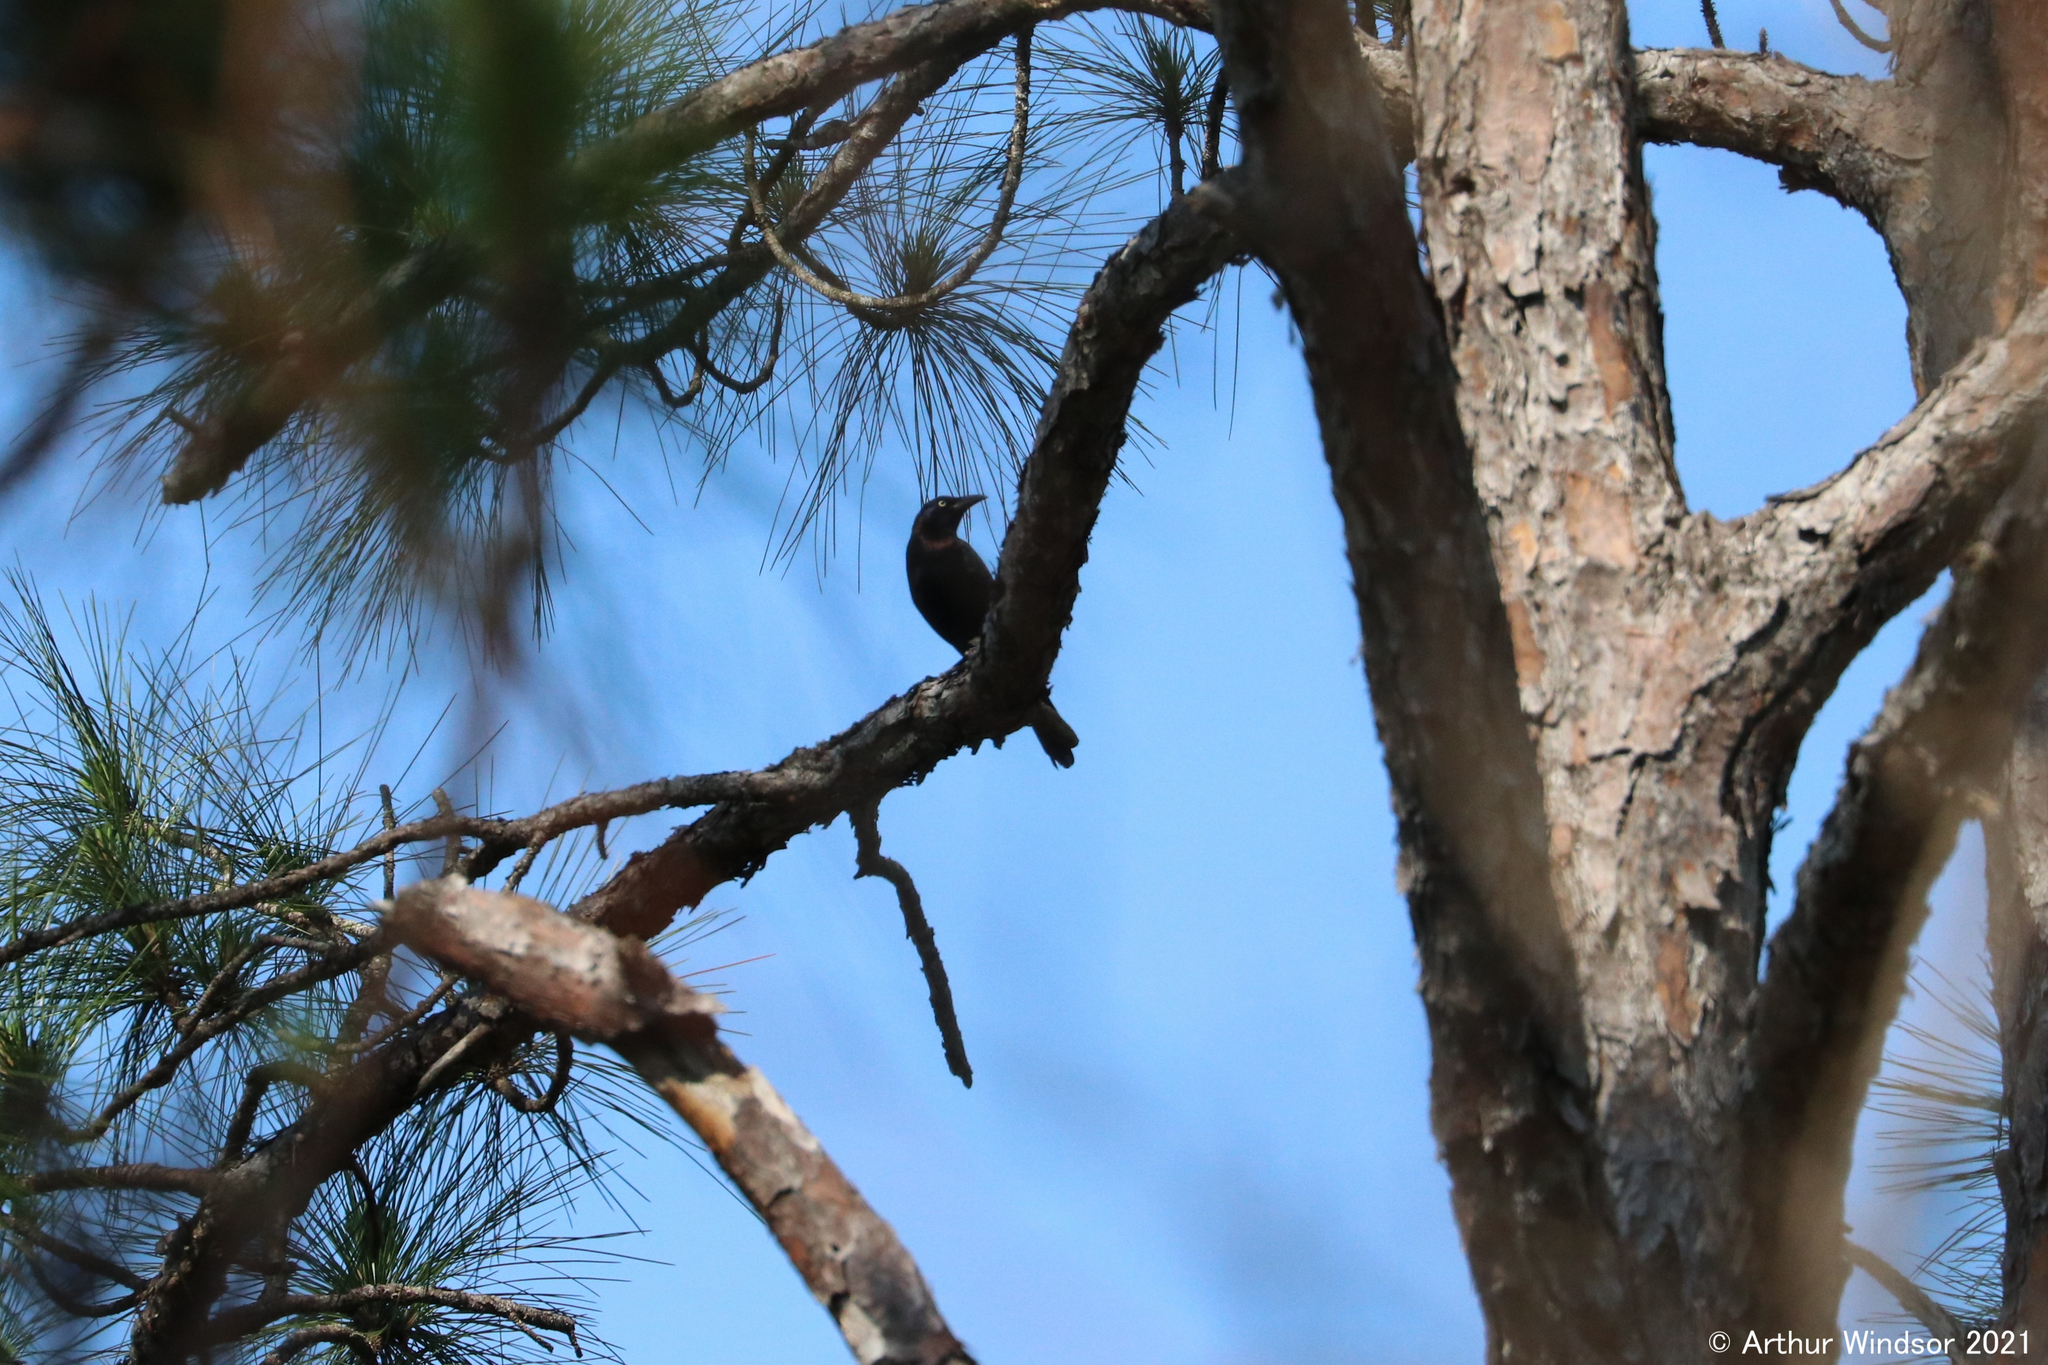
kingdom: Animalia
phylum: Chordata
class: Aves
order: Passeriformes
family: Icteridae
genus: Quiscalus
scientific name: Quiscalus quiscula
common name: Common grackle
